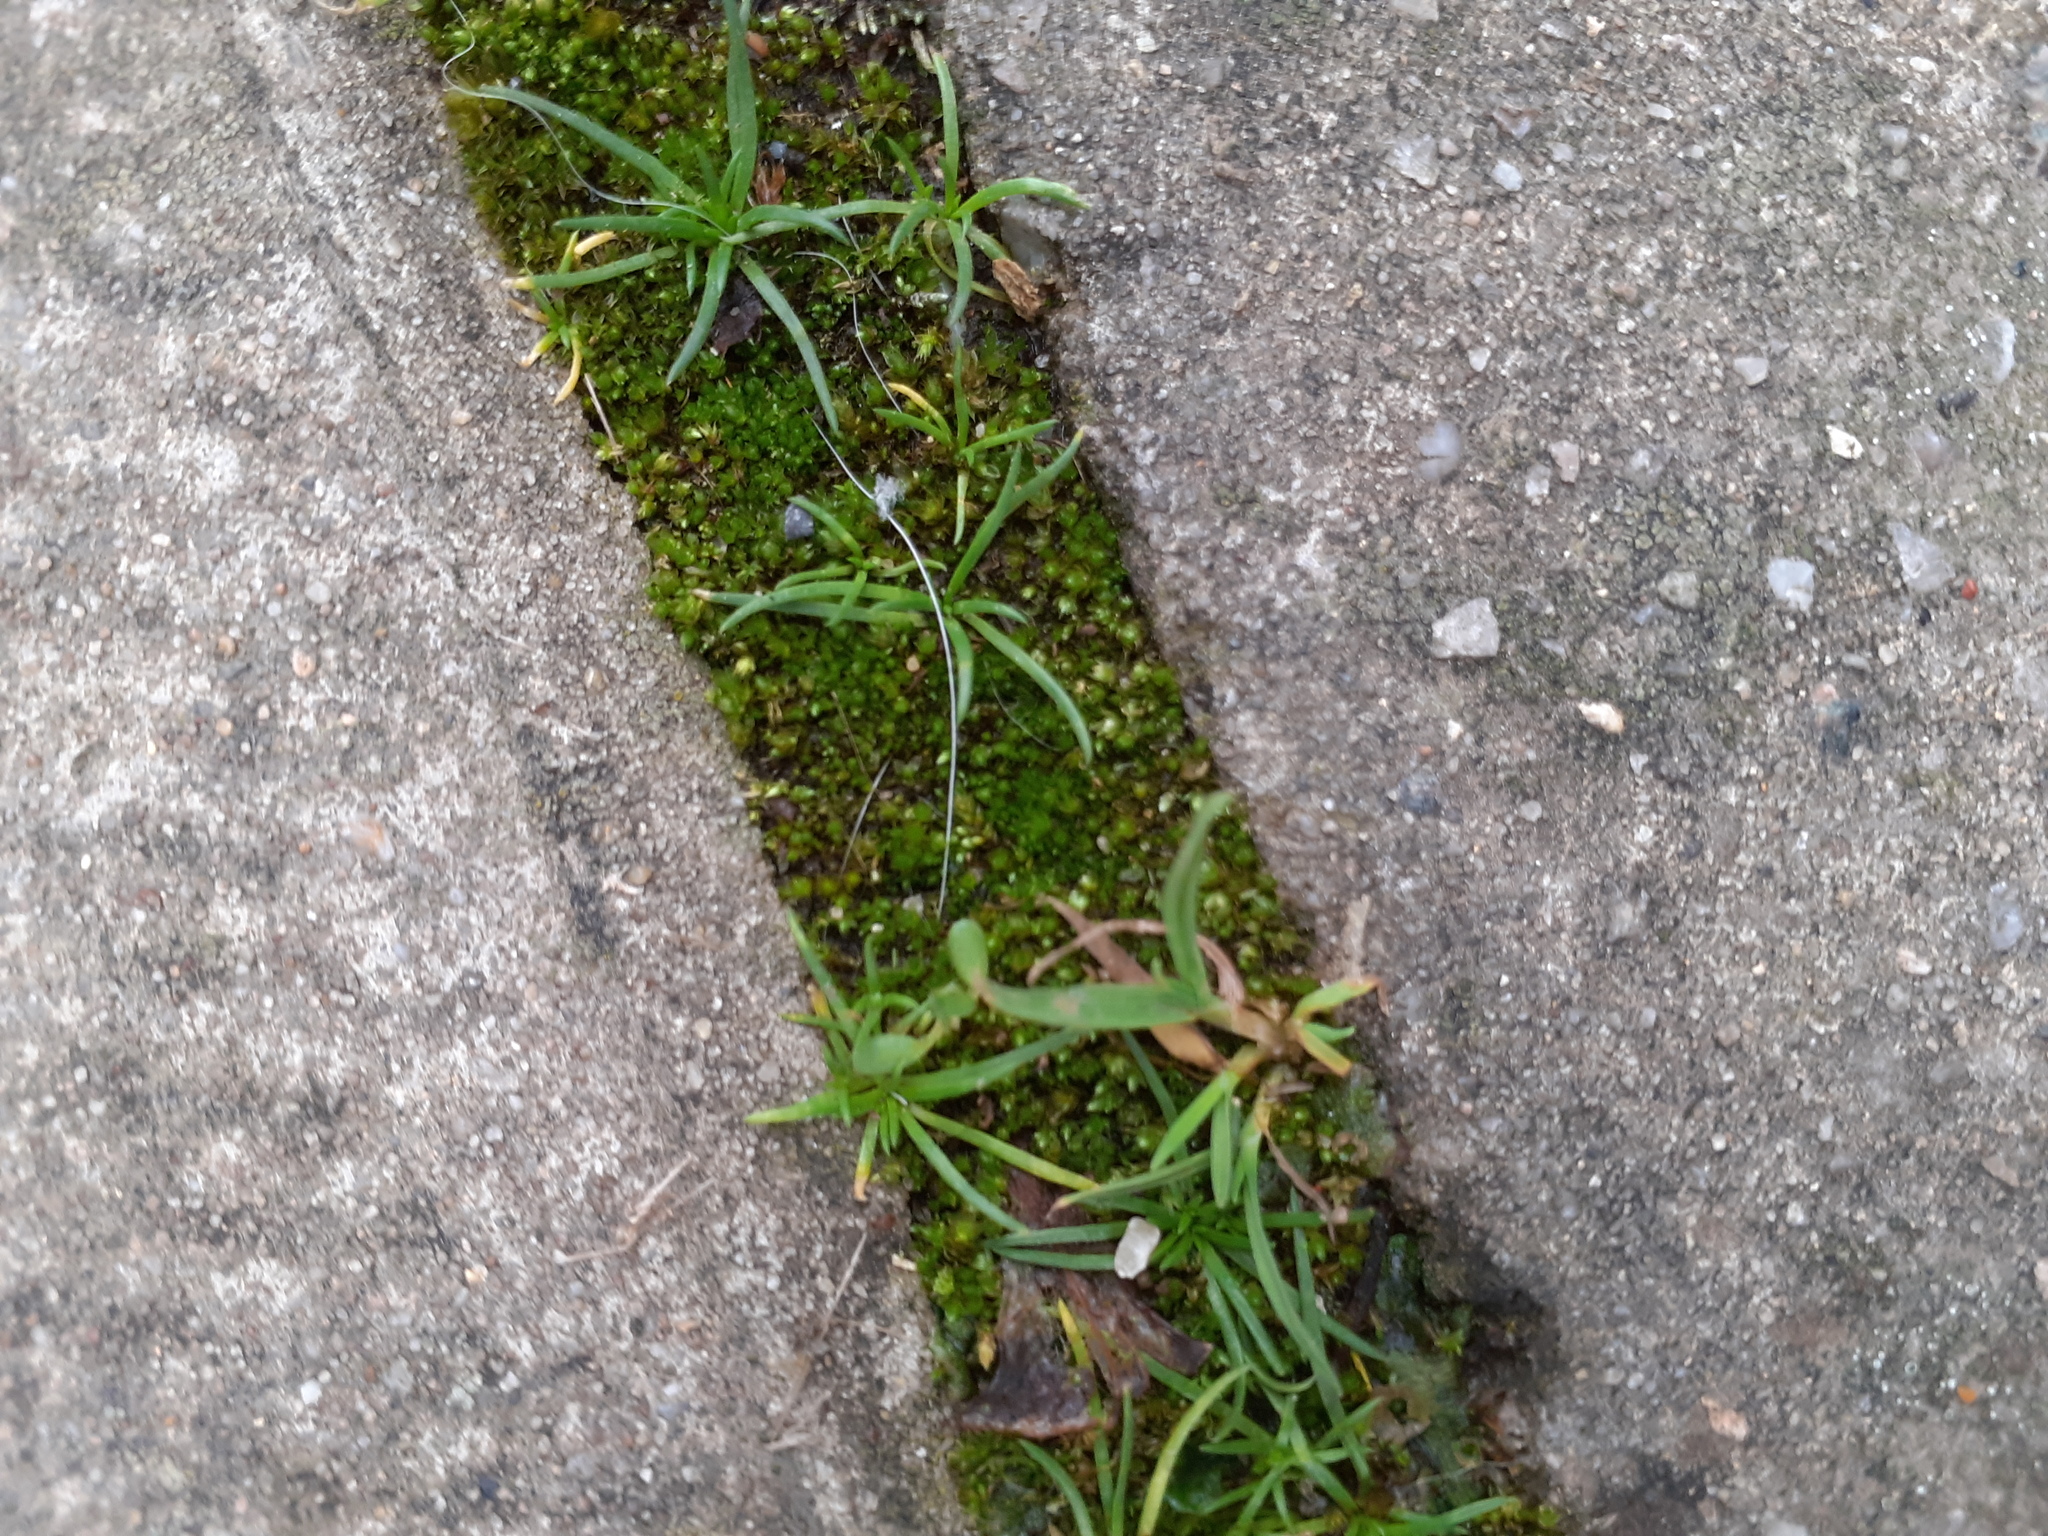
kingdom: Plantae
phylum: Tracheophyta
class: Magnoliopsida
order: Caryophyllales
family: Caryophyllaceae
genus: Sagina
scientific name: Sagina procumbens
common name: Procumbent pearlwort
